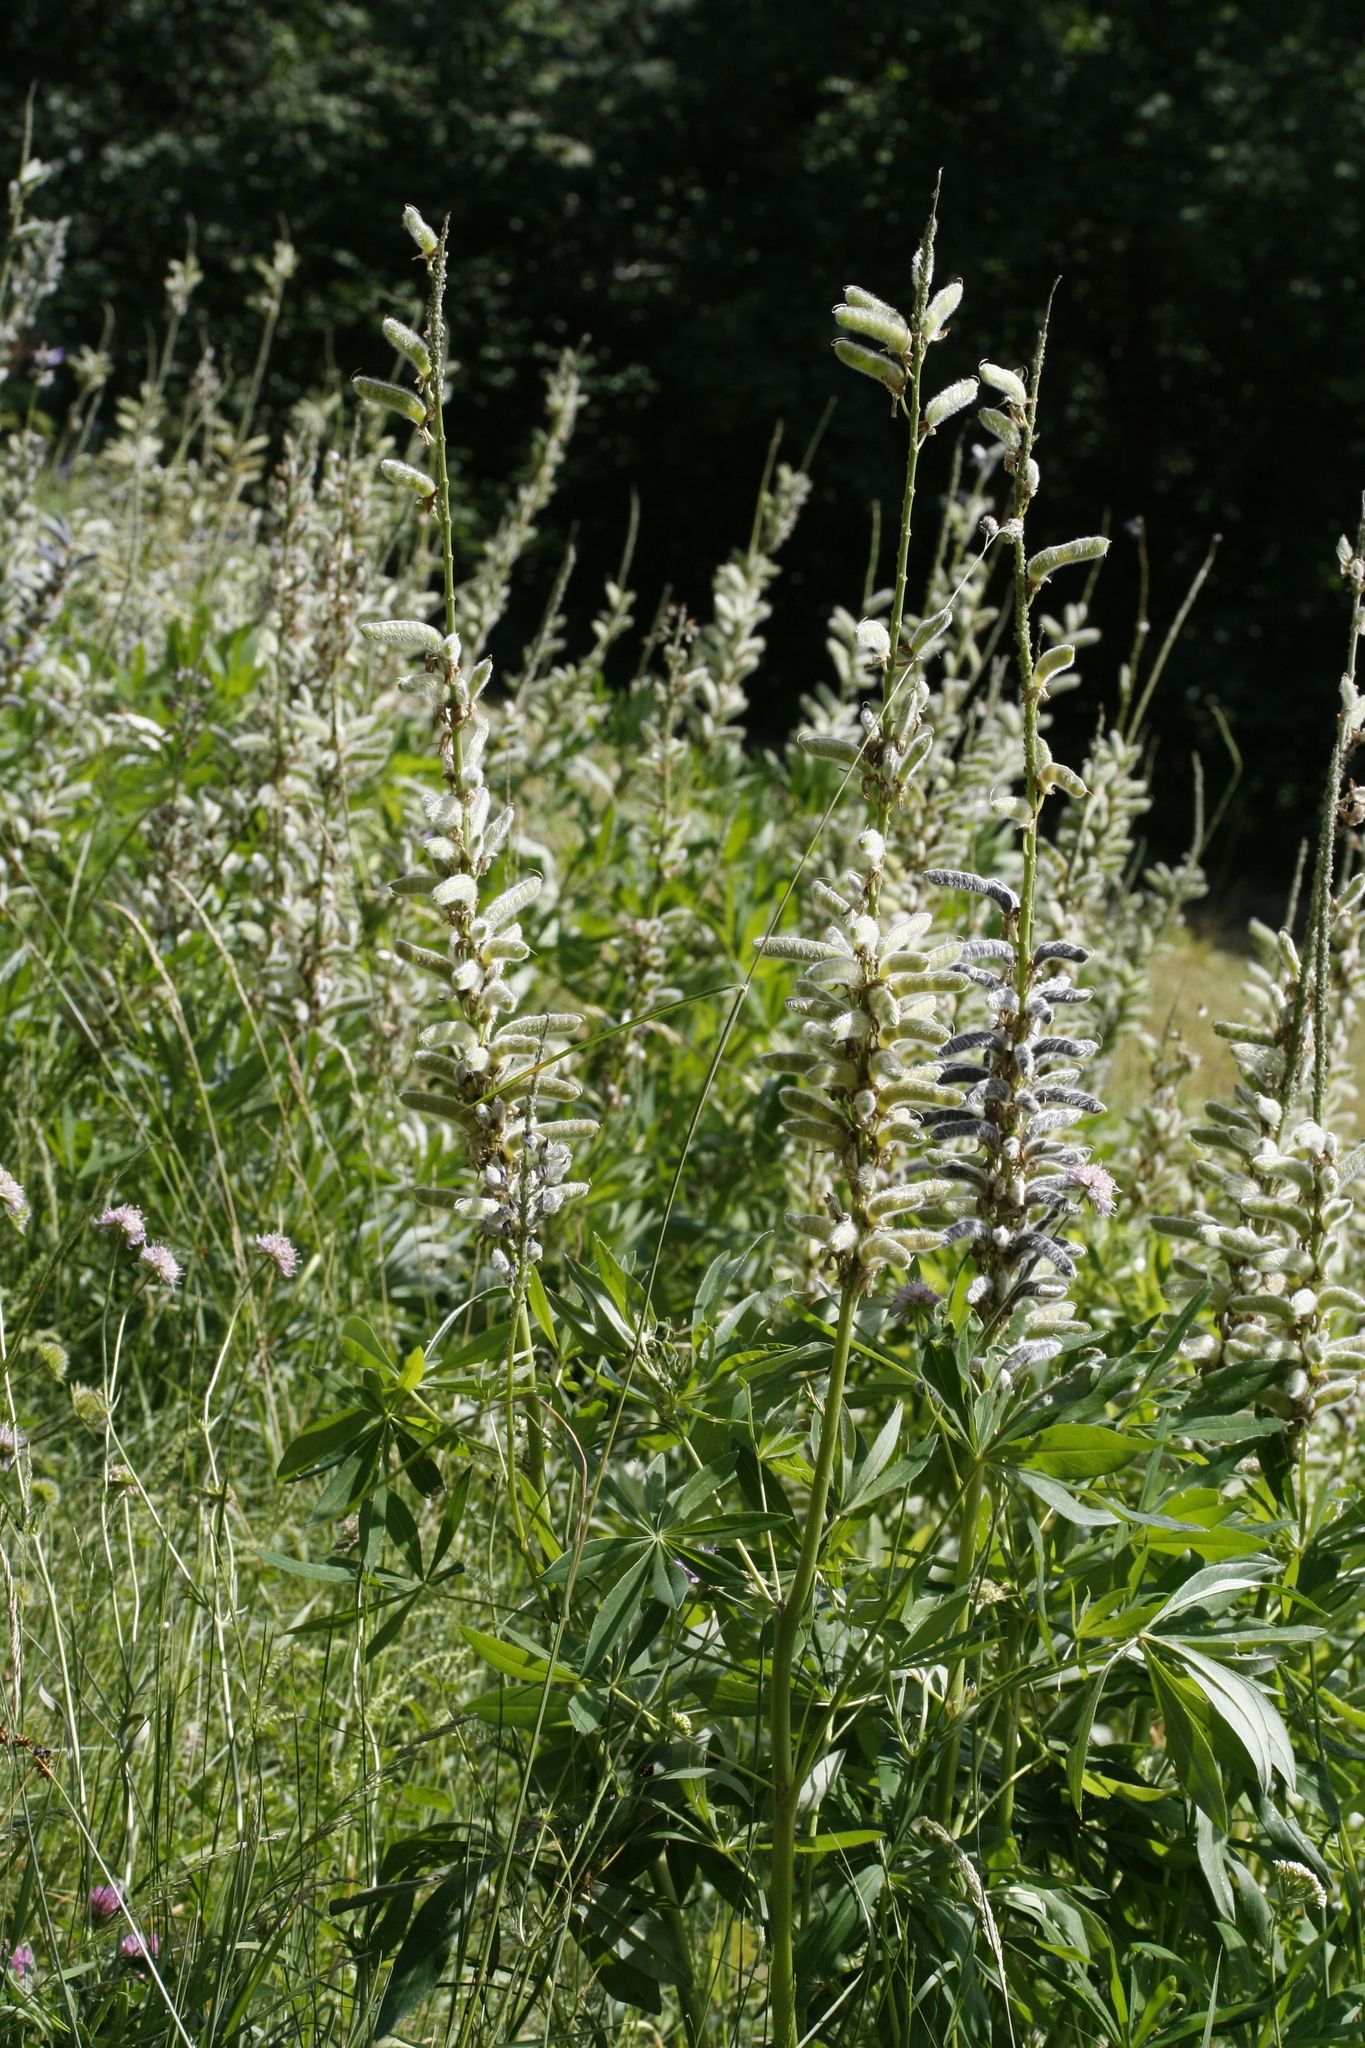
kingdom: Plantae
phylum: Tracheophyta
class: Magnoliopsida
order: Fabales
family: Fabaceae
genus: Lupinus
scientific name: Lupinus polyphyllus
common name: Garden lupin
